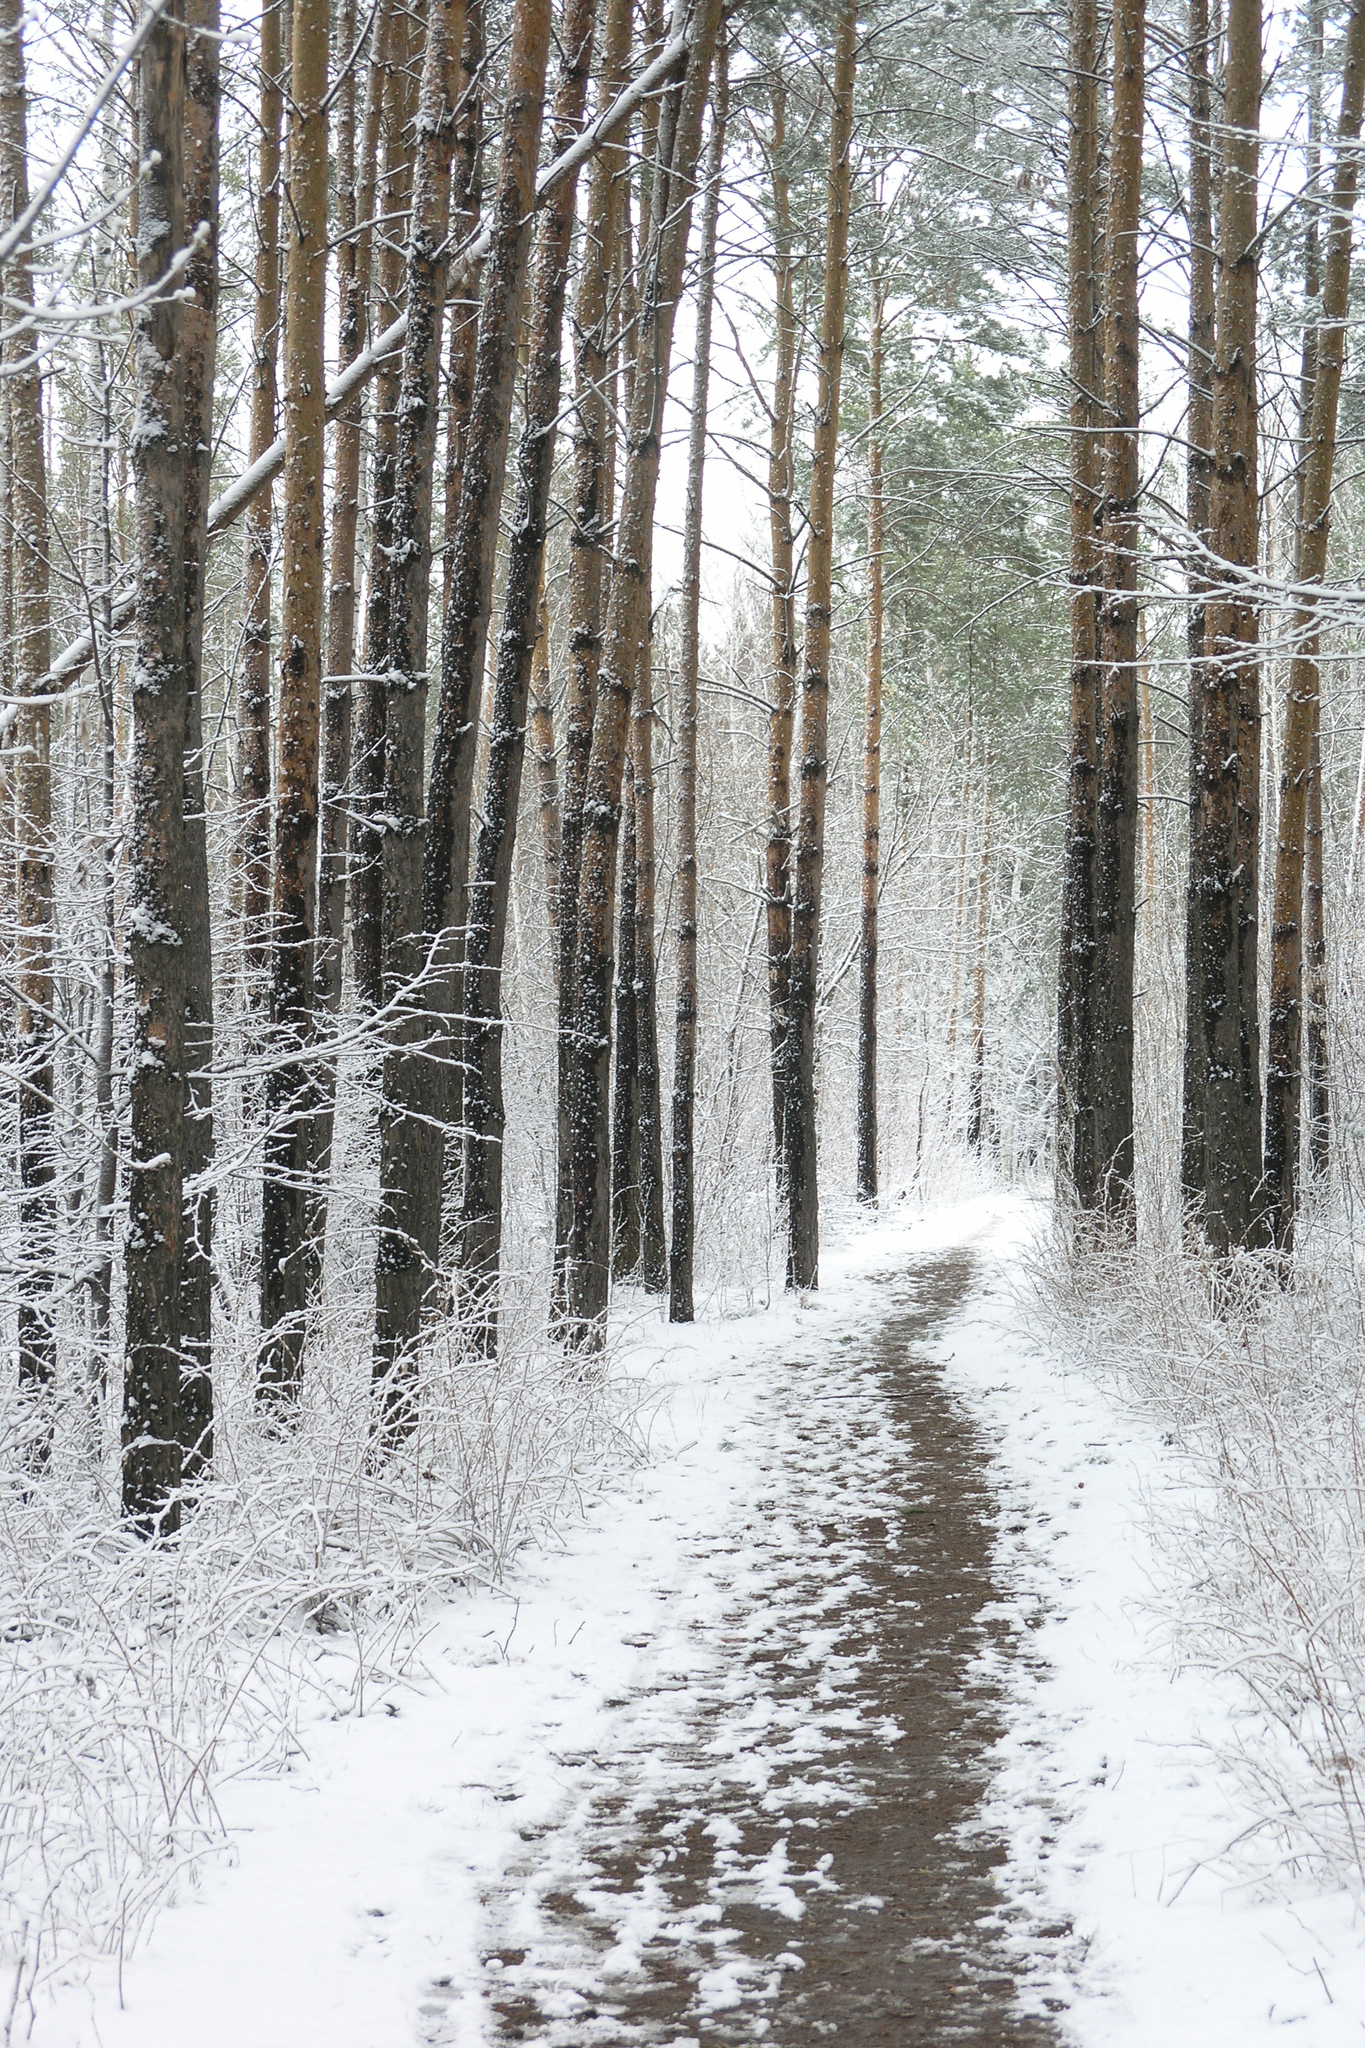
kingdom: Plantae
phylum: Tracheophyta
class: Pinopsida
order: Pinales
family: Pinaceae
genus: Pinus
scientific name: Pinus sylvestris
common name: Scots pine
